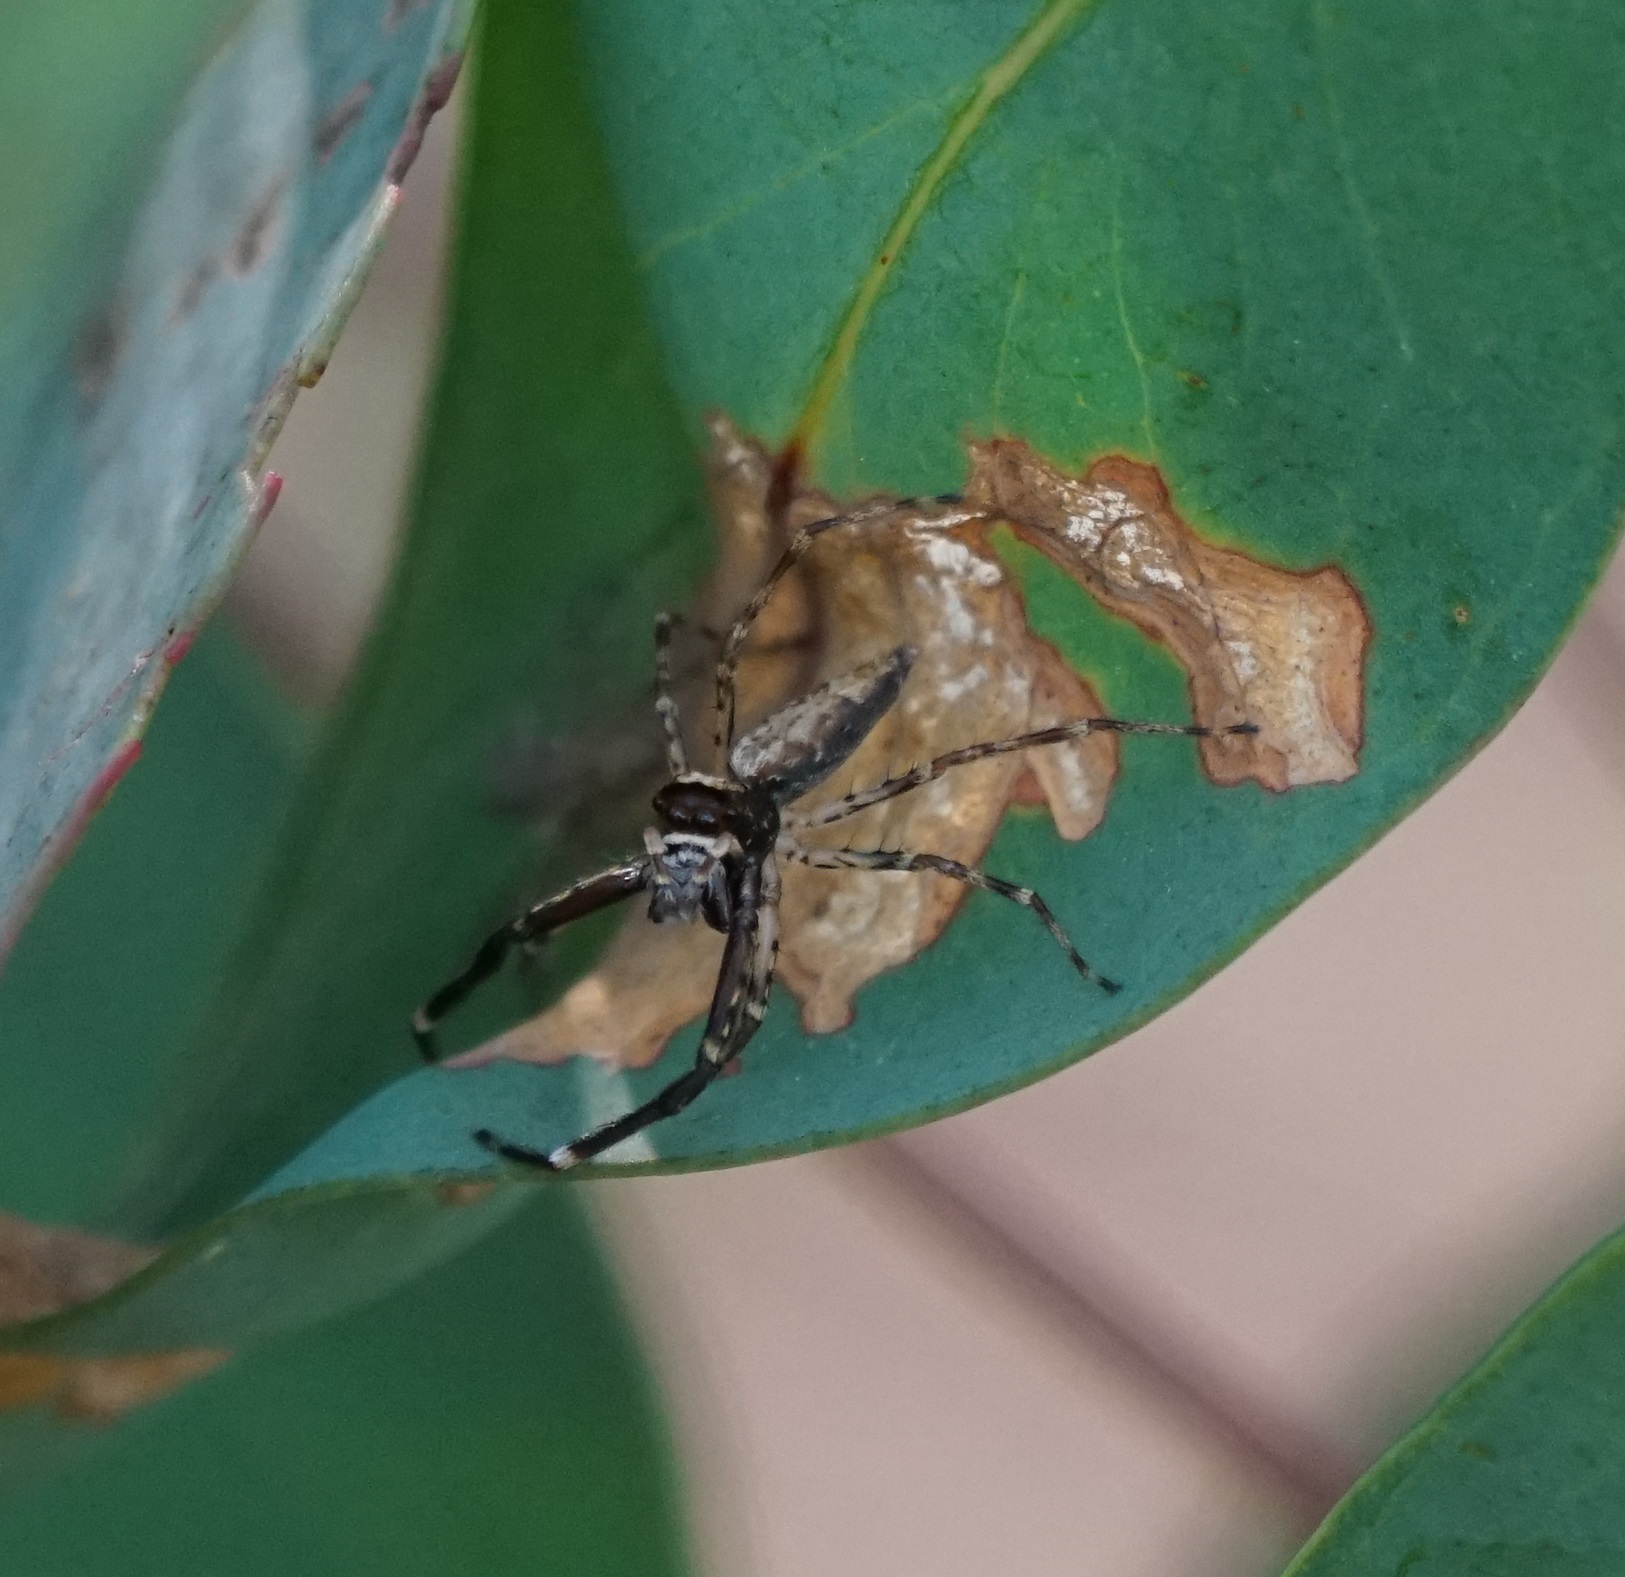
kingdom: Animalia
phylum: Arthropoda
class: Arachnida
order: Araneae
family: Salticidae
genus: Helpis
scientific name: Helpis minitabunda
